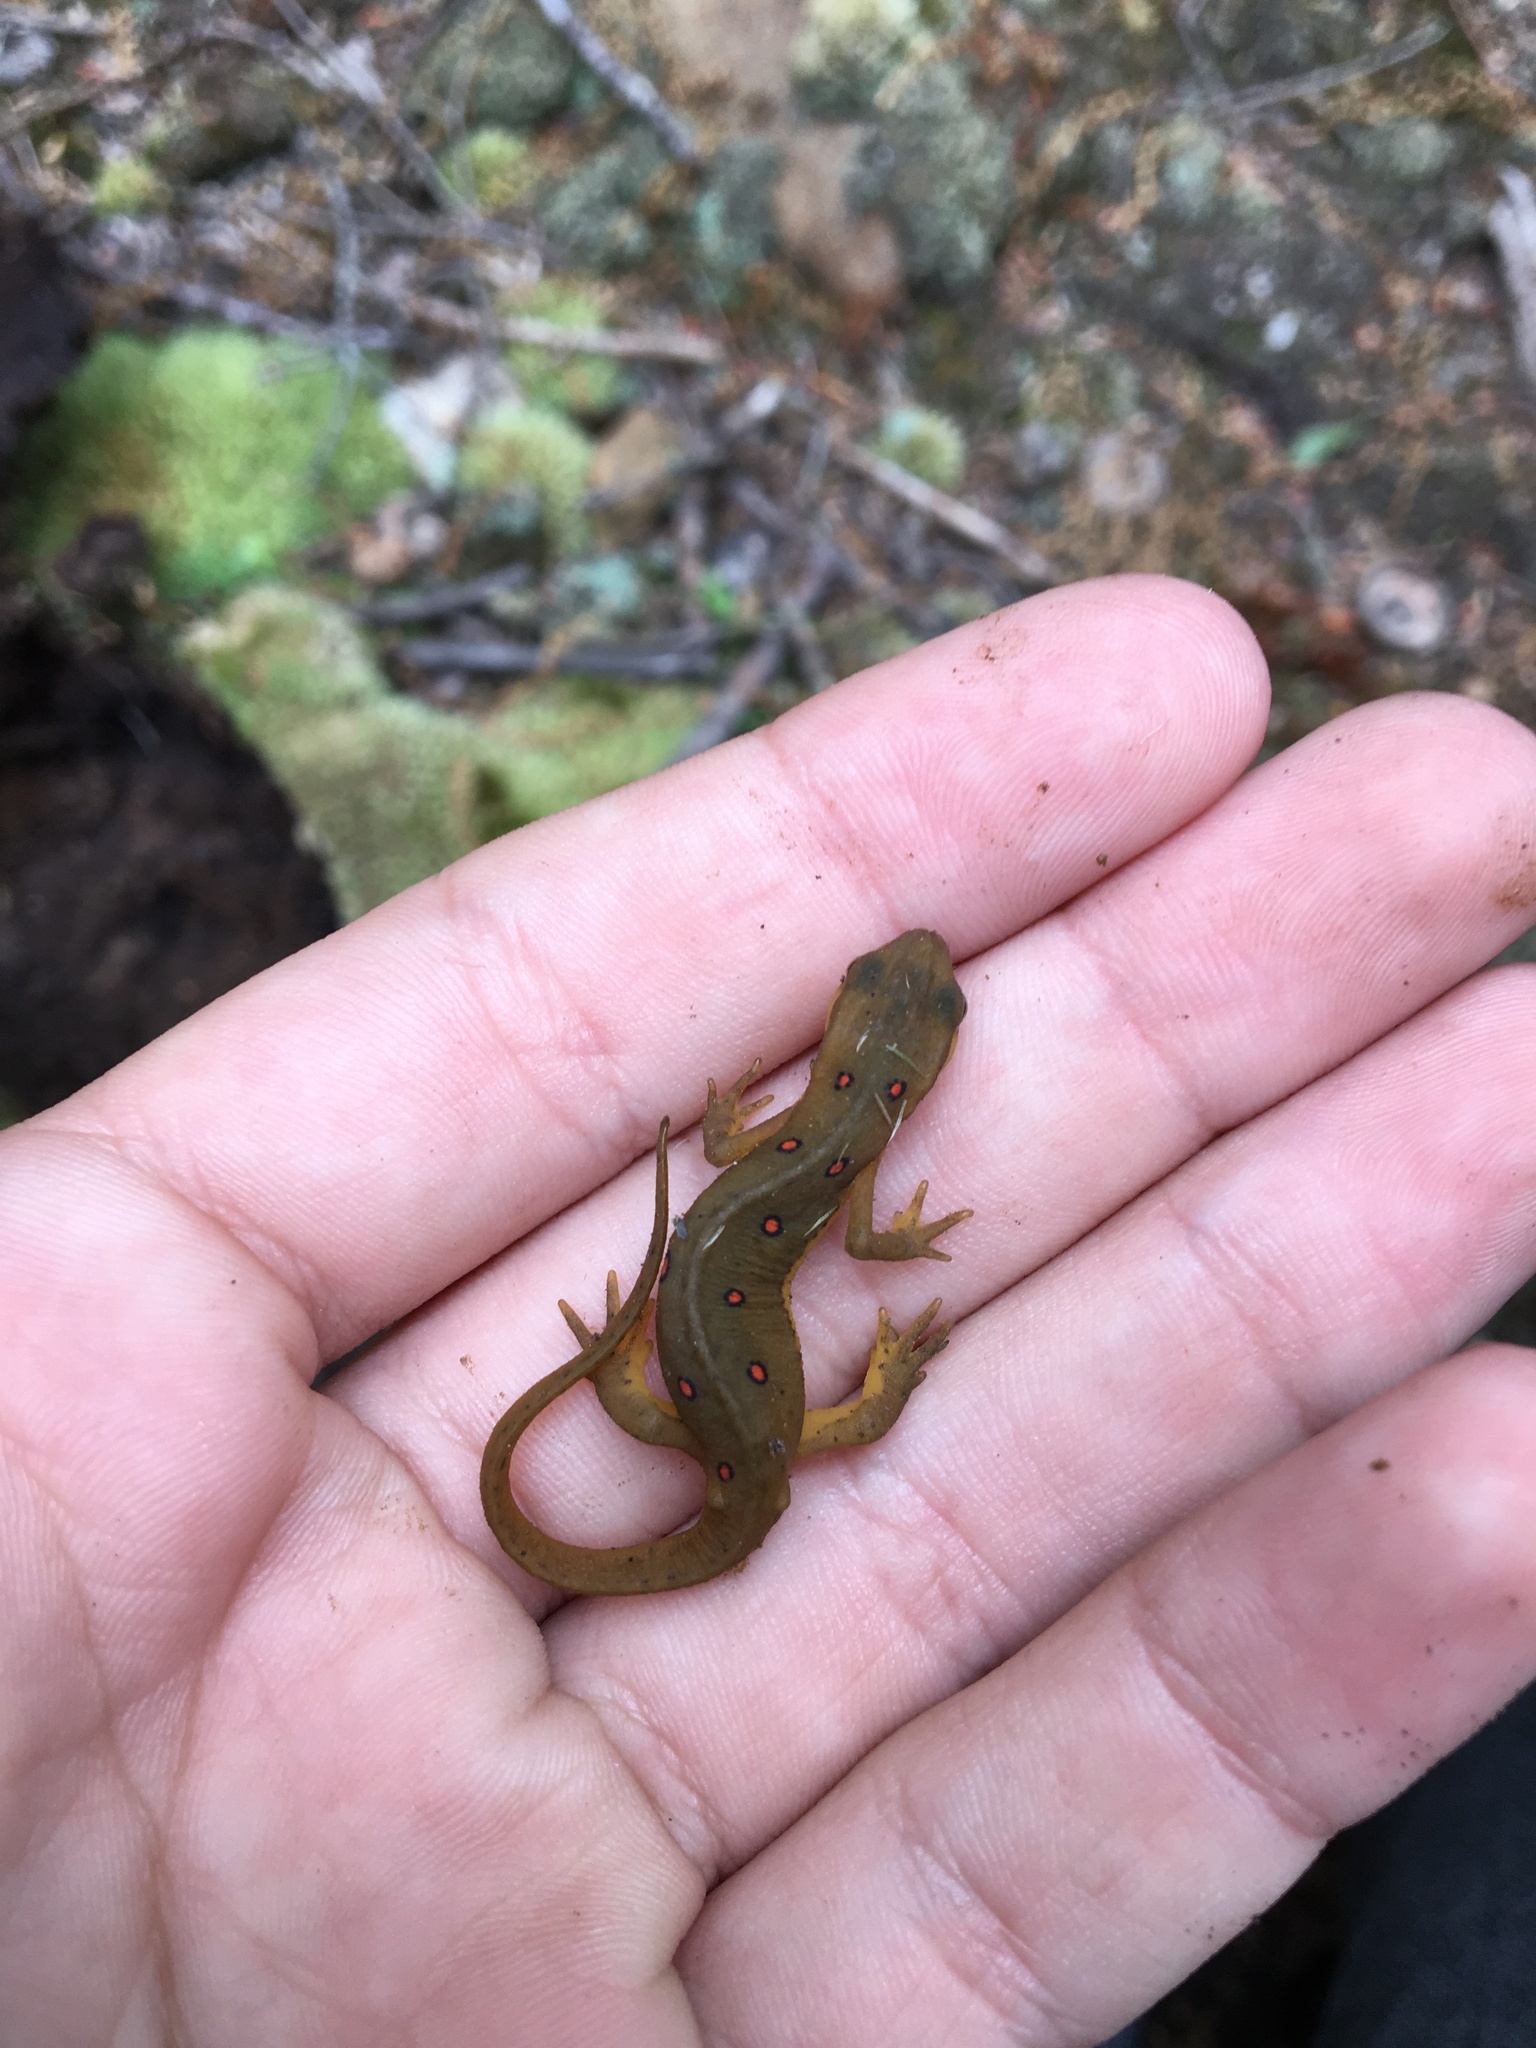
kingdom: Animalia
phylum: Chordata
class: Amphibia
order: Caudata
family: Salamandridae
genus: Notophthalmus
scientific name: Notophthalmus viridescens
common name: Eastern newt
